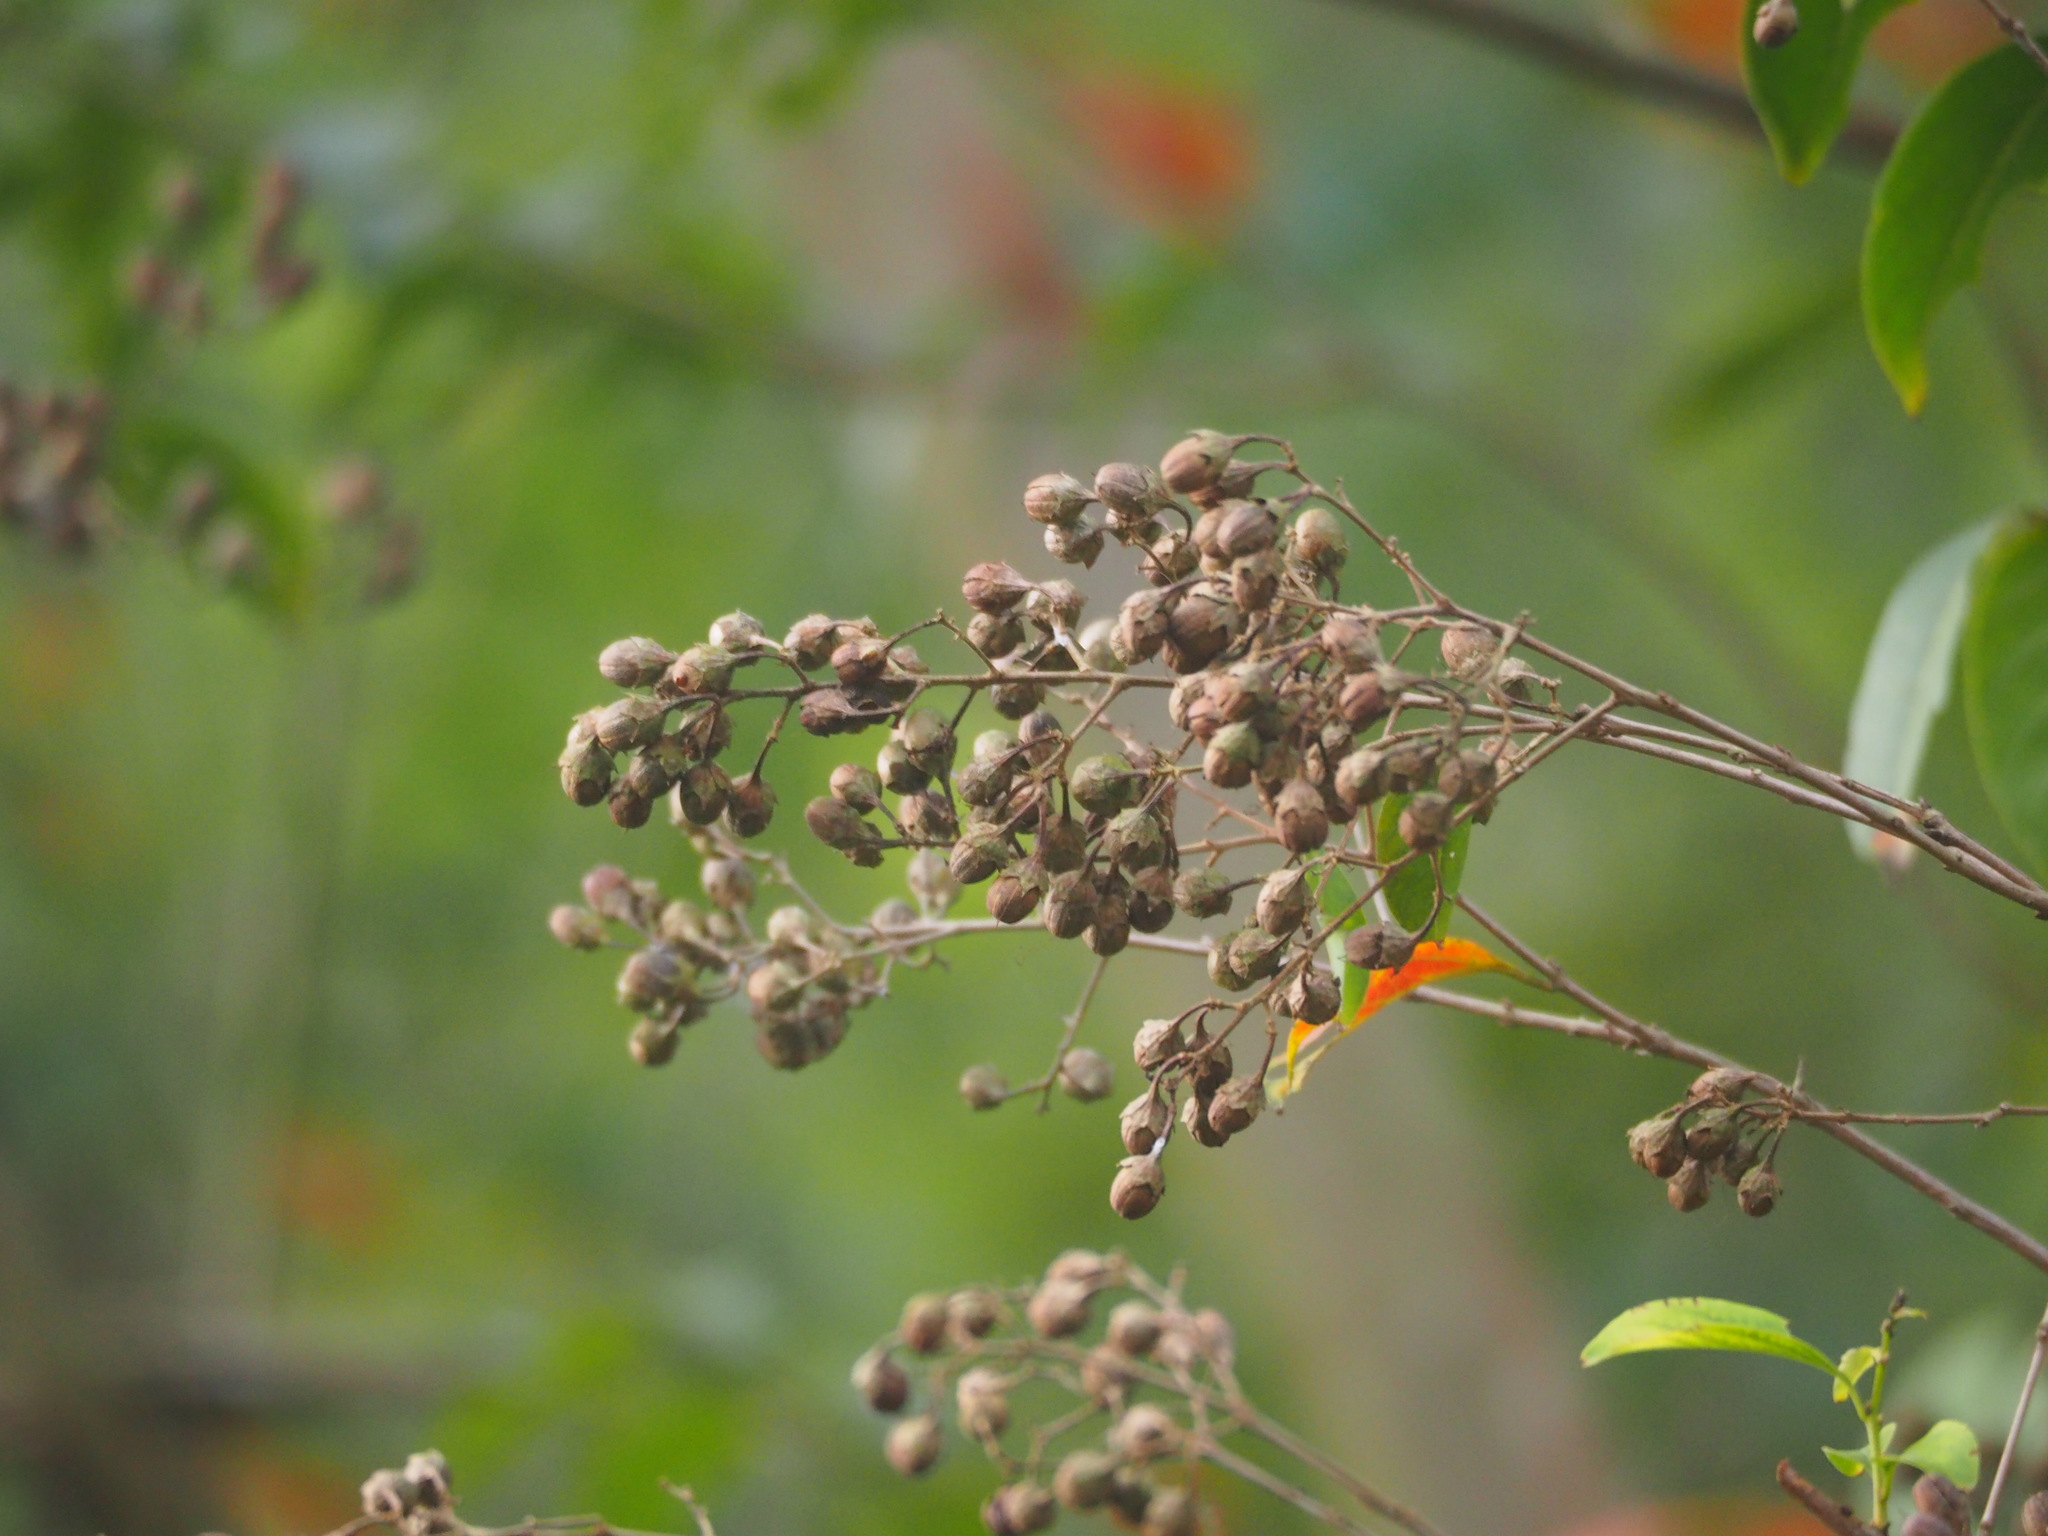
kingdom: Plantae
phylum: Tracheophyta
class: Magnoliopsida
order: Myrtales
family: Lythraceae
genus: Lagerstroemia
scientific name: Lagerstroemia subcostata
